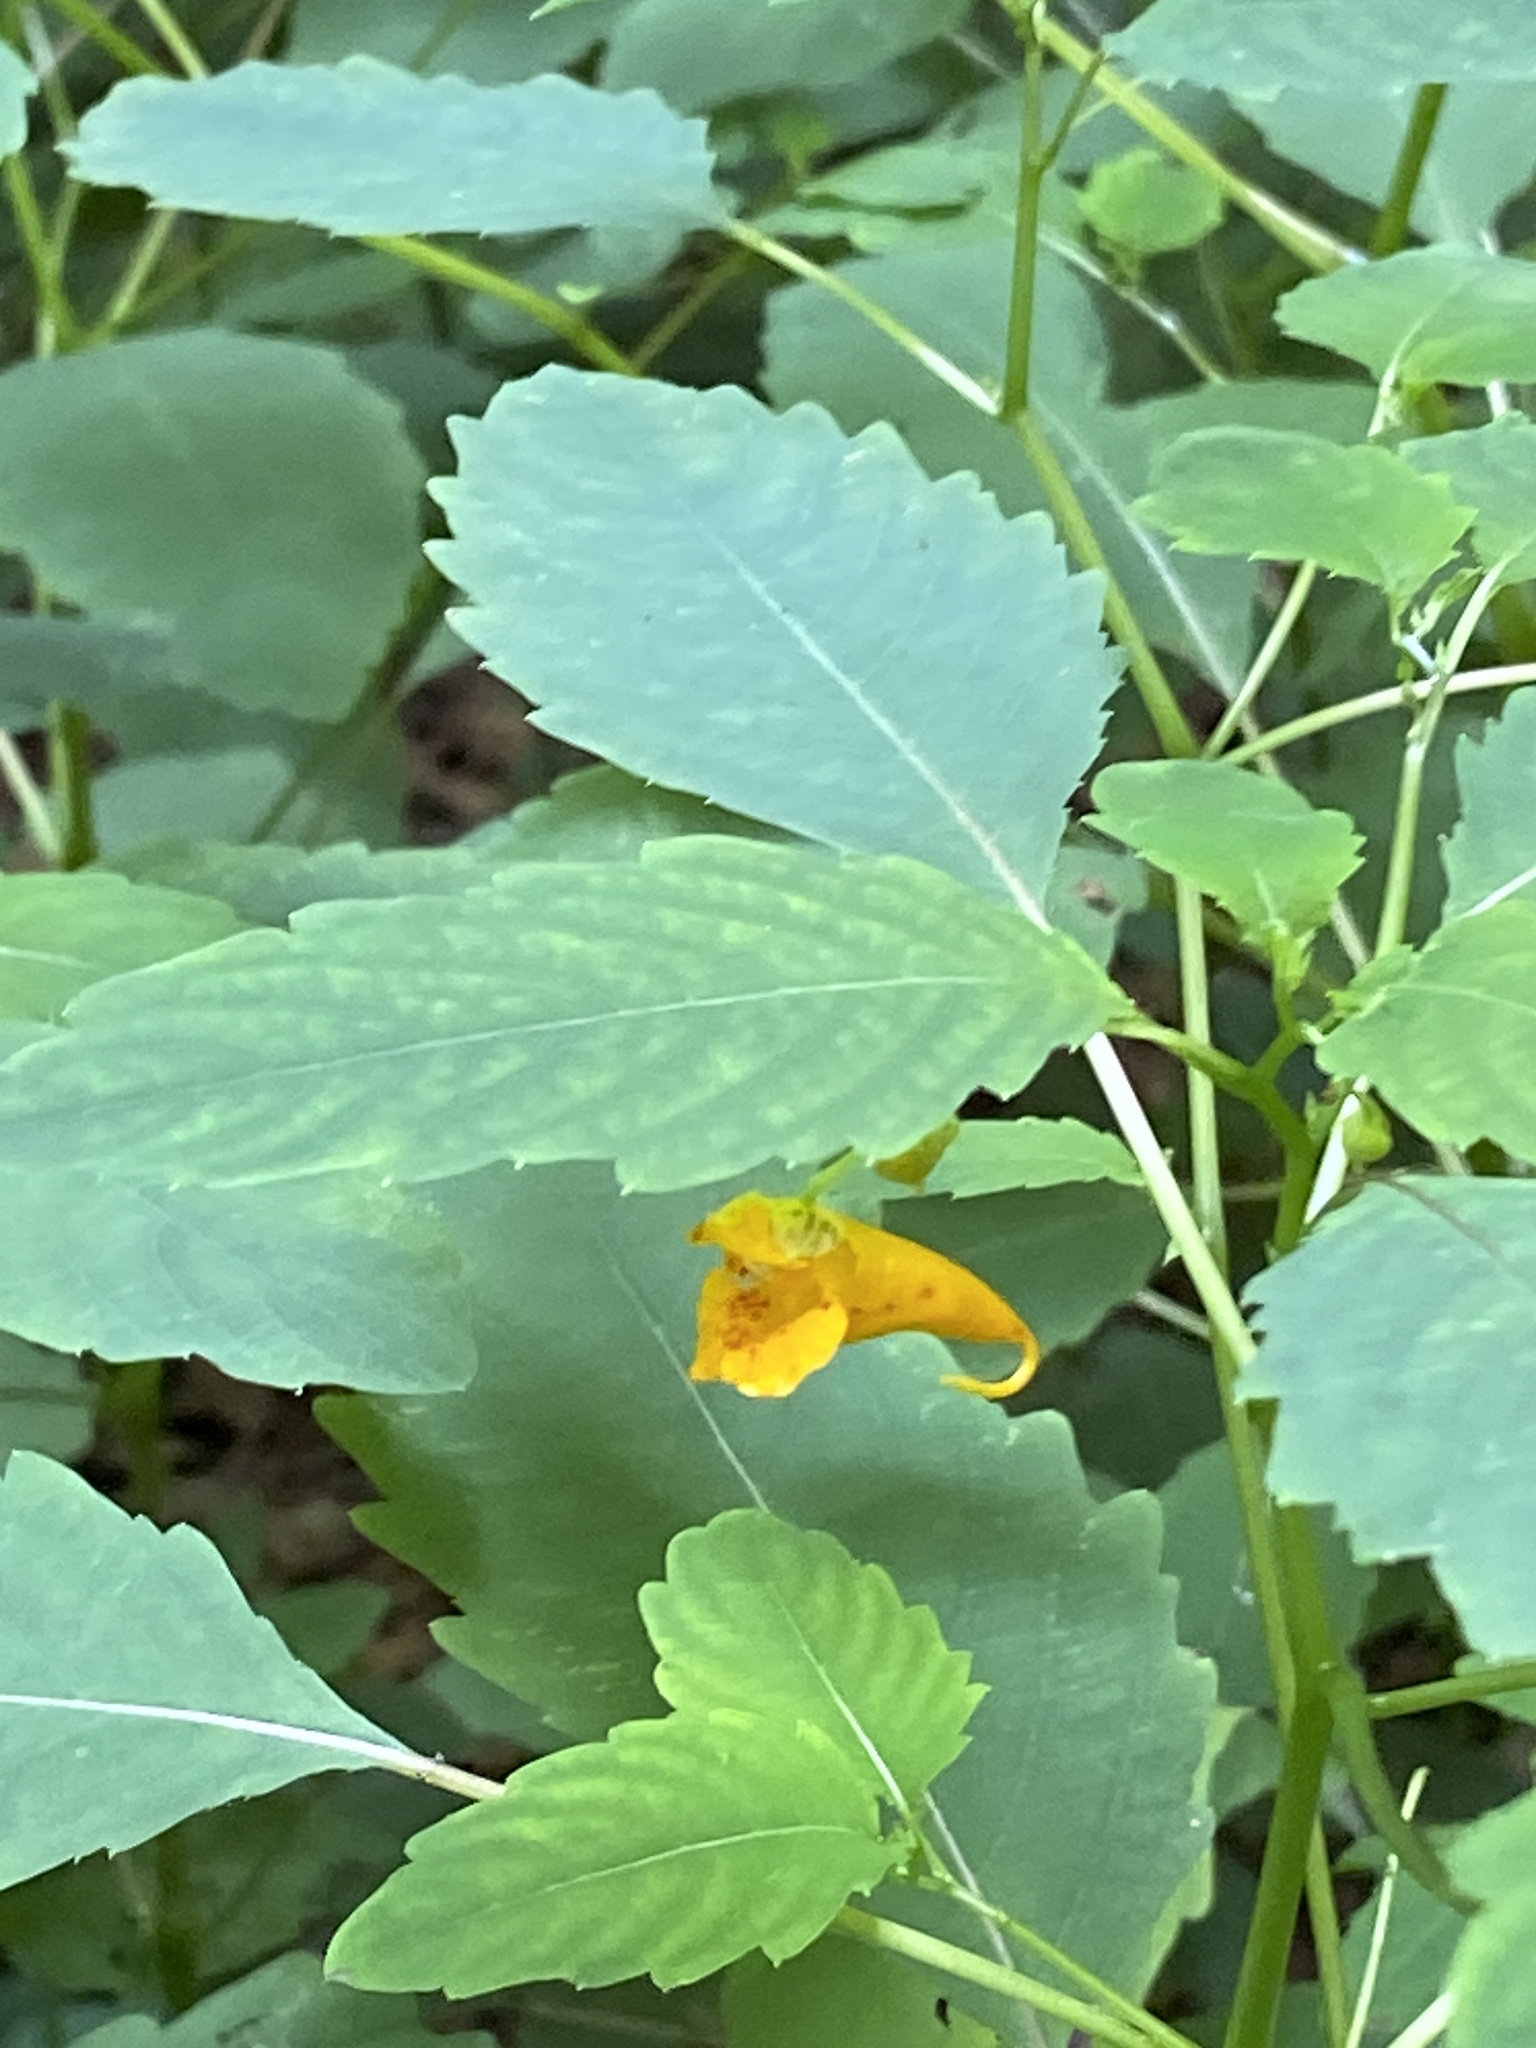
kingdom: Plantae
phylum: Tracheophyta
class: Magnoliopsida
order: Ericales
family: Balsaminaceae
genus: Impatiens
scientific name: Impatiens capensis
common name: Orange balsam
